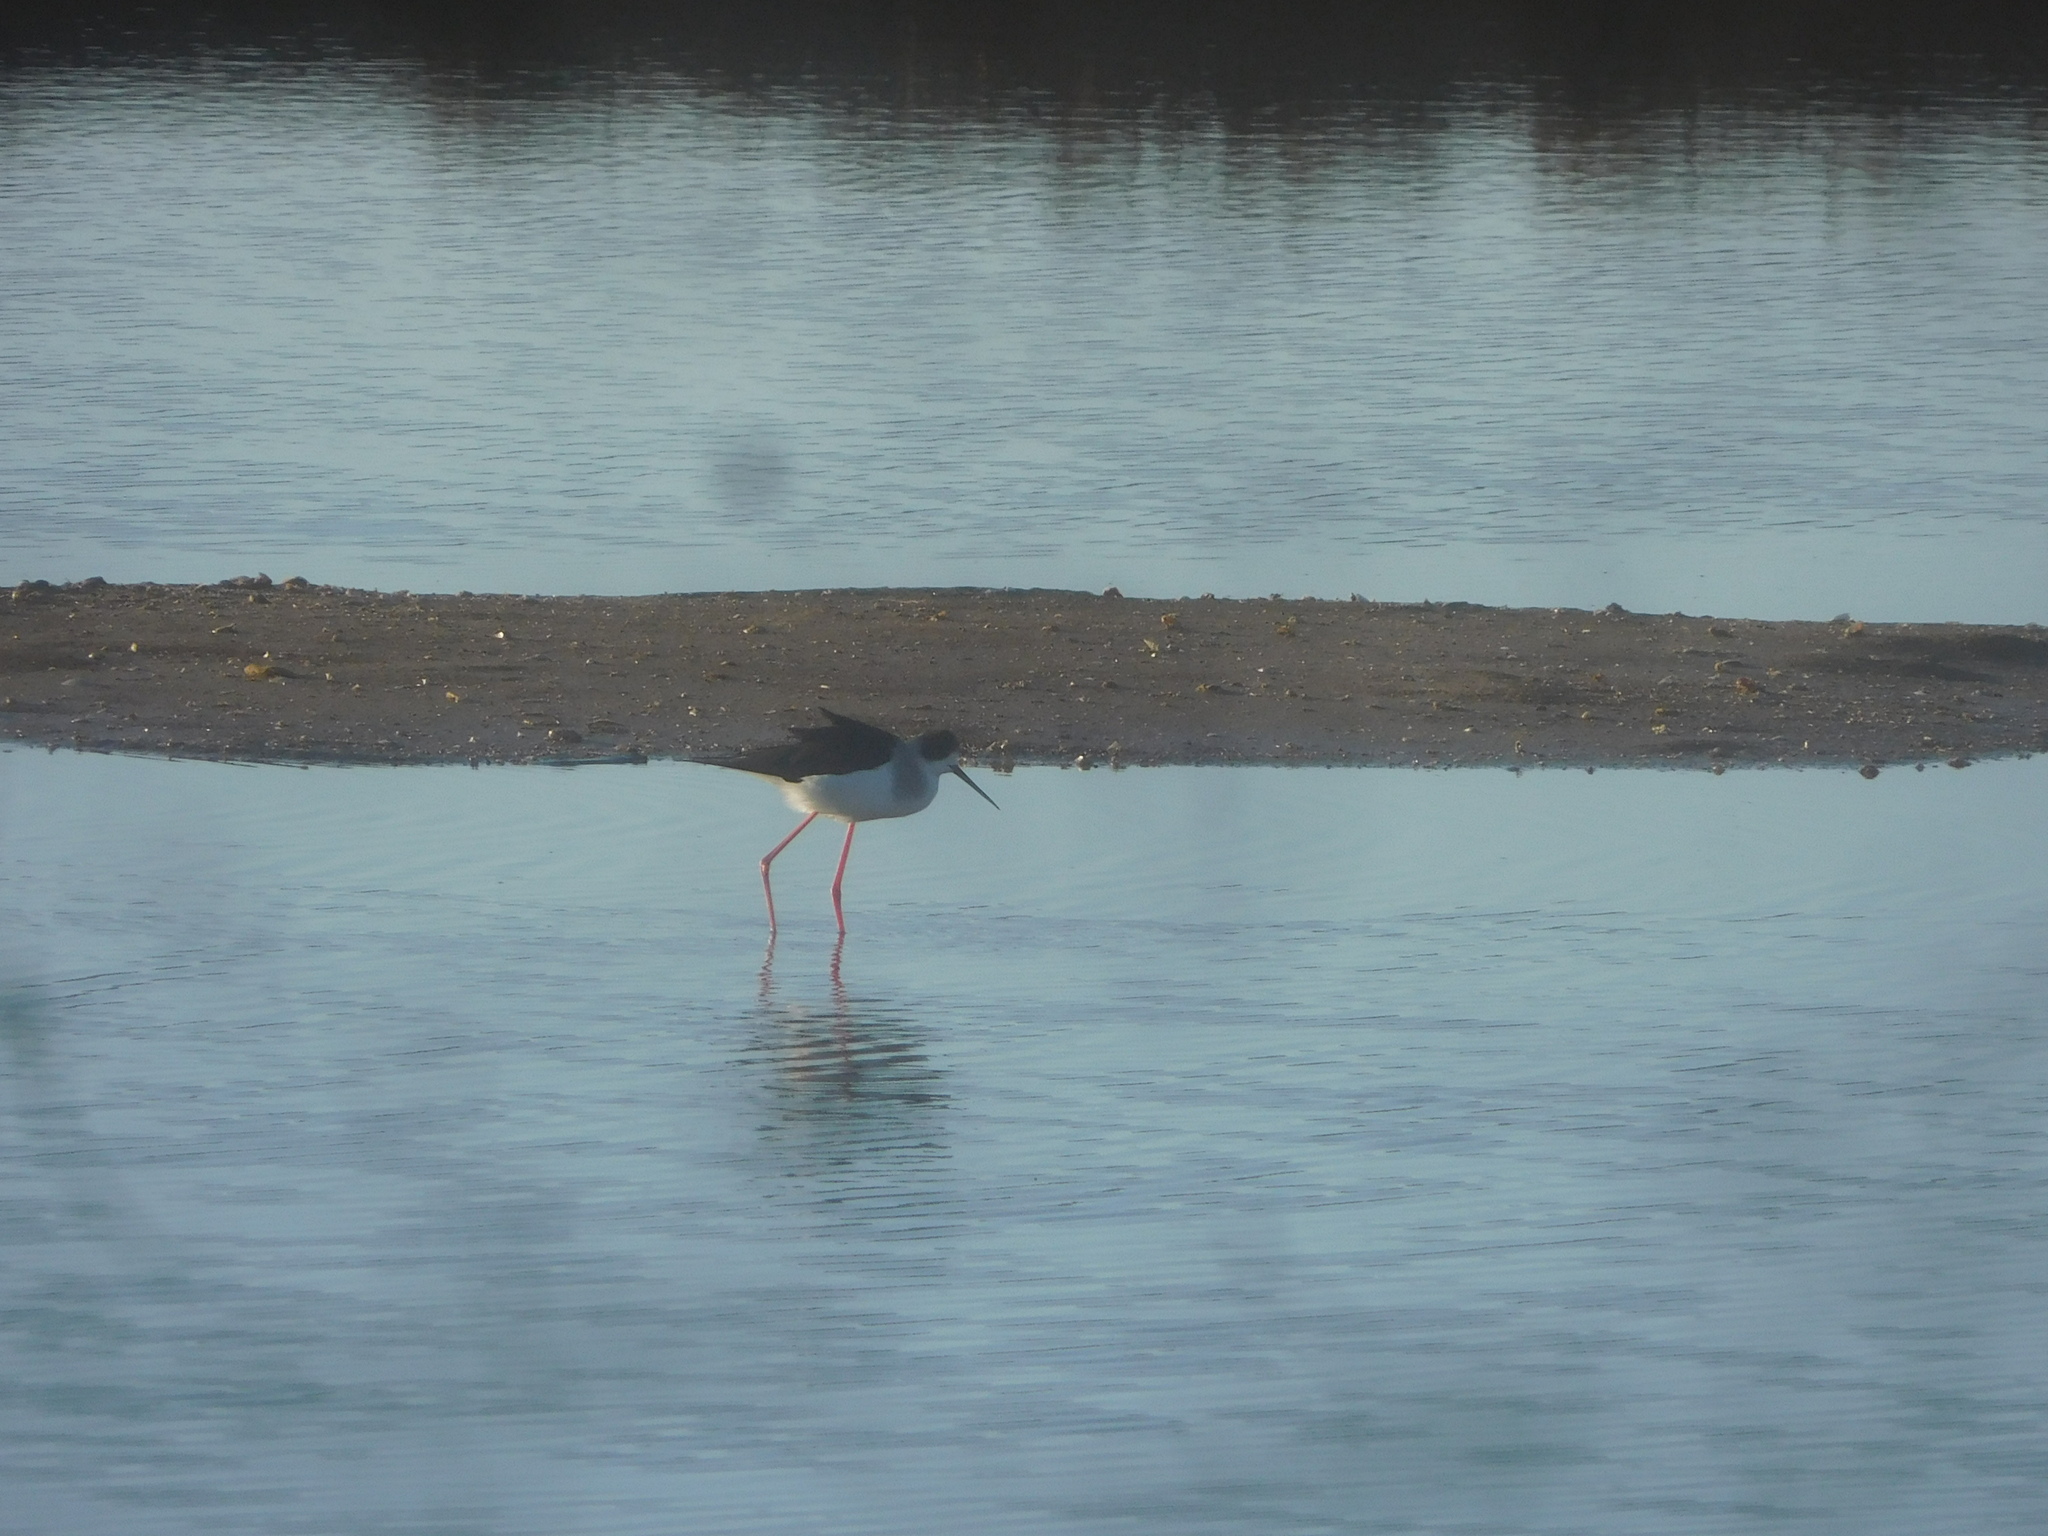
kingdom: Animalia
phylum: Chordata
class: Aves
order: Charadriiformes
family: Recurvirostridae
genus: Himantopus
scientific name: Himantopus himantopus
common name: Black-winged stilt
